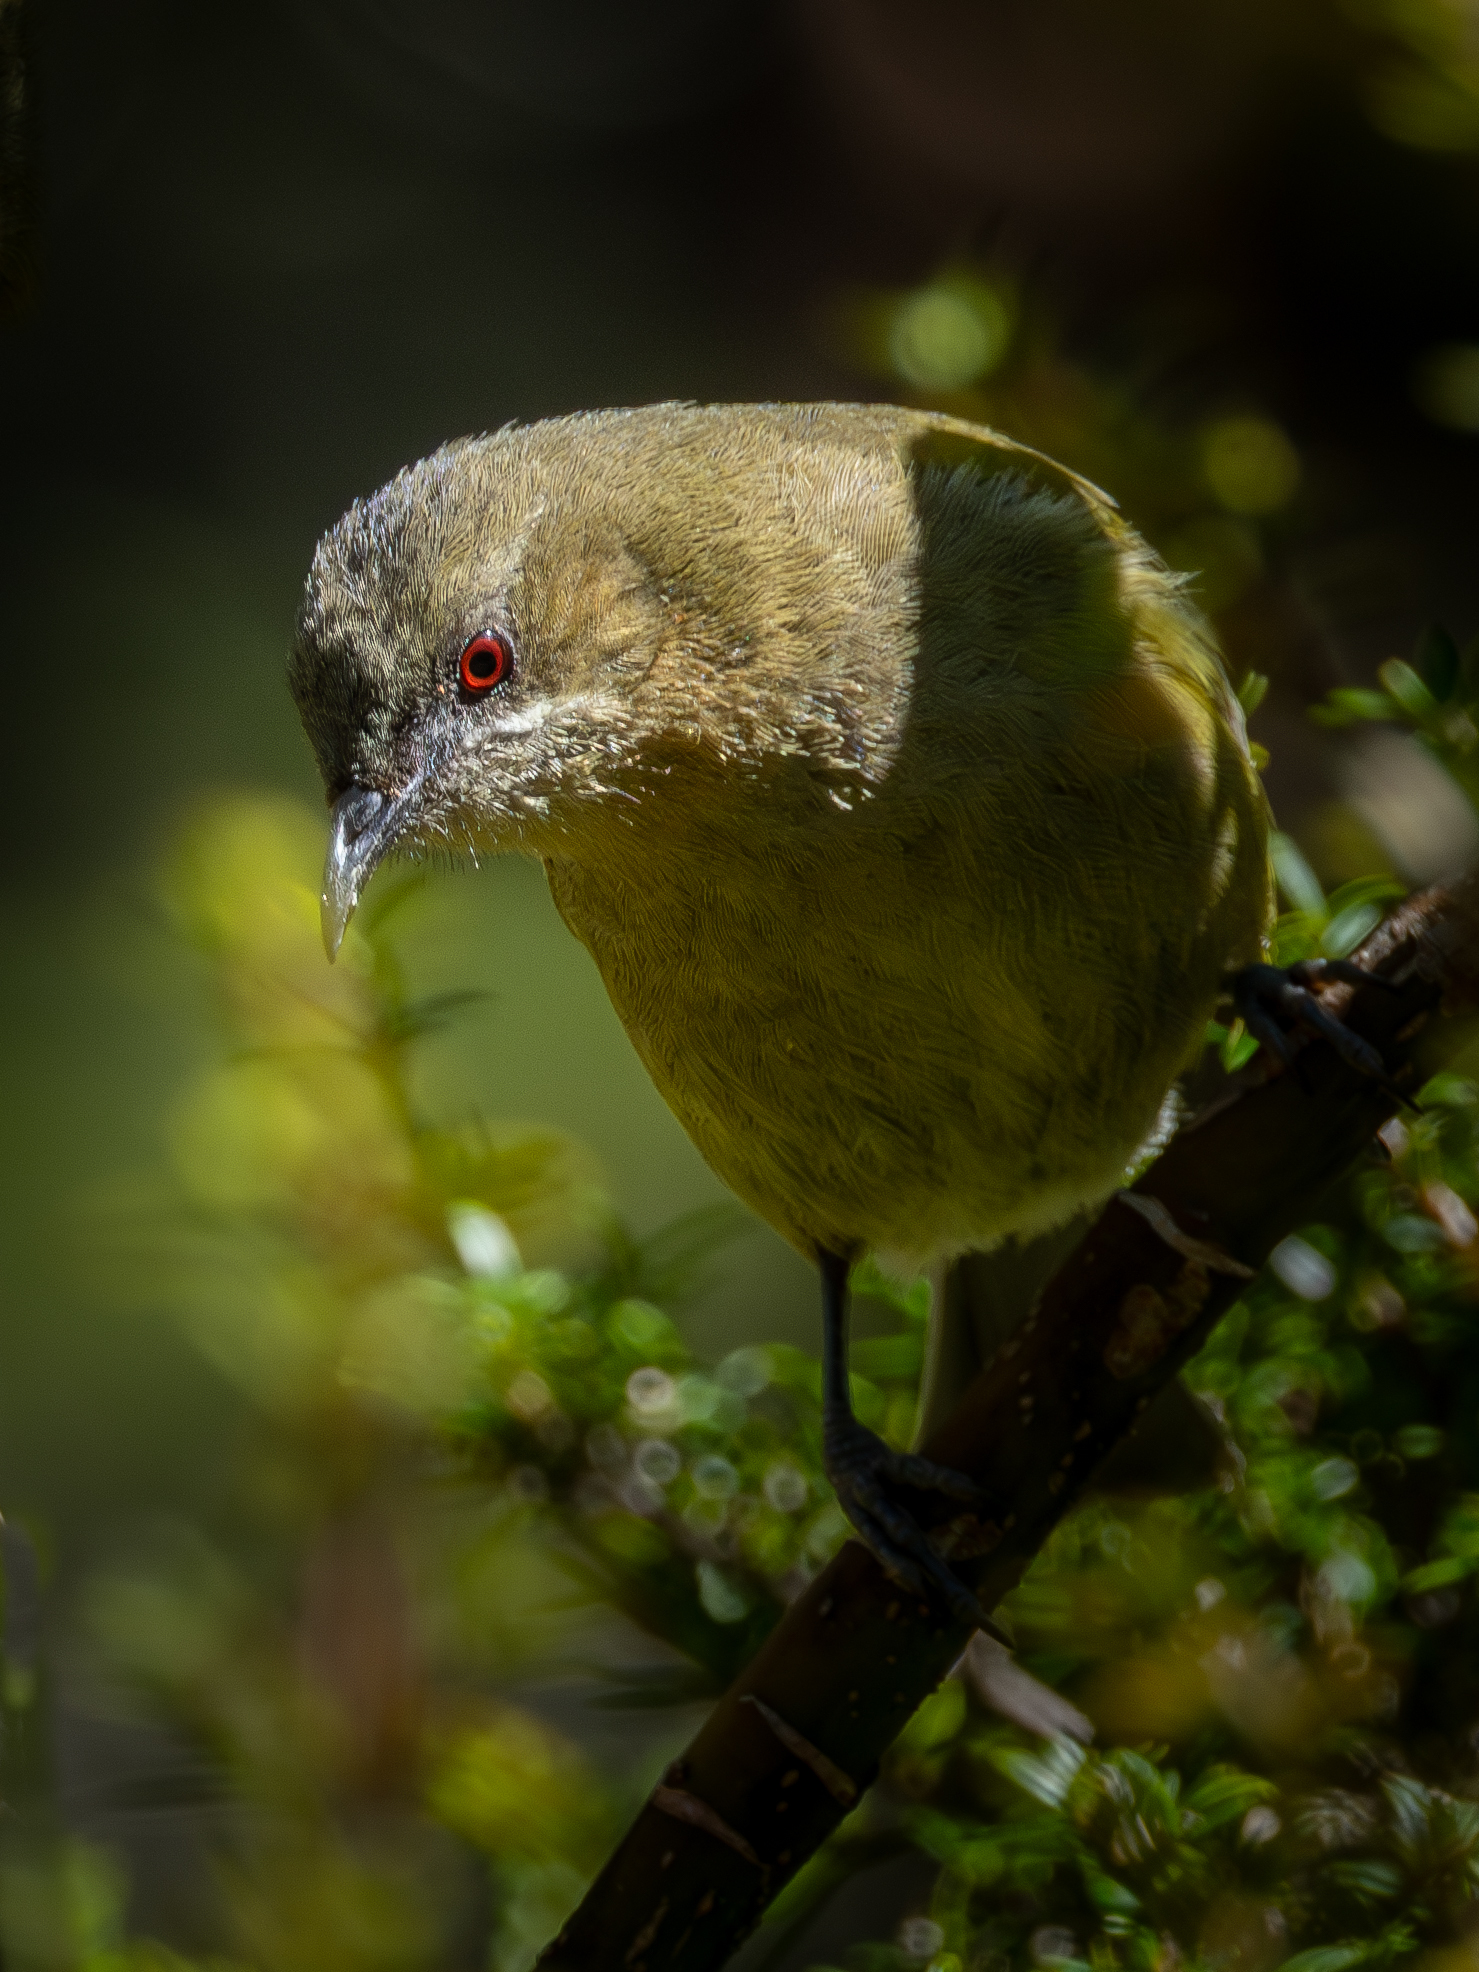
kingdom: Animalia
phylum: Chordata
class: Aves
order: Passeriformes
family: Meliphagidae
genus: Anthornis
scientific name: Anthornis melanura
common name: New zealand bellbird
